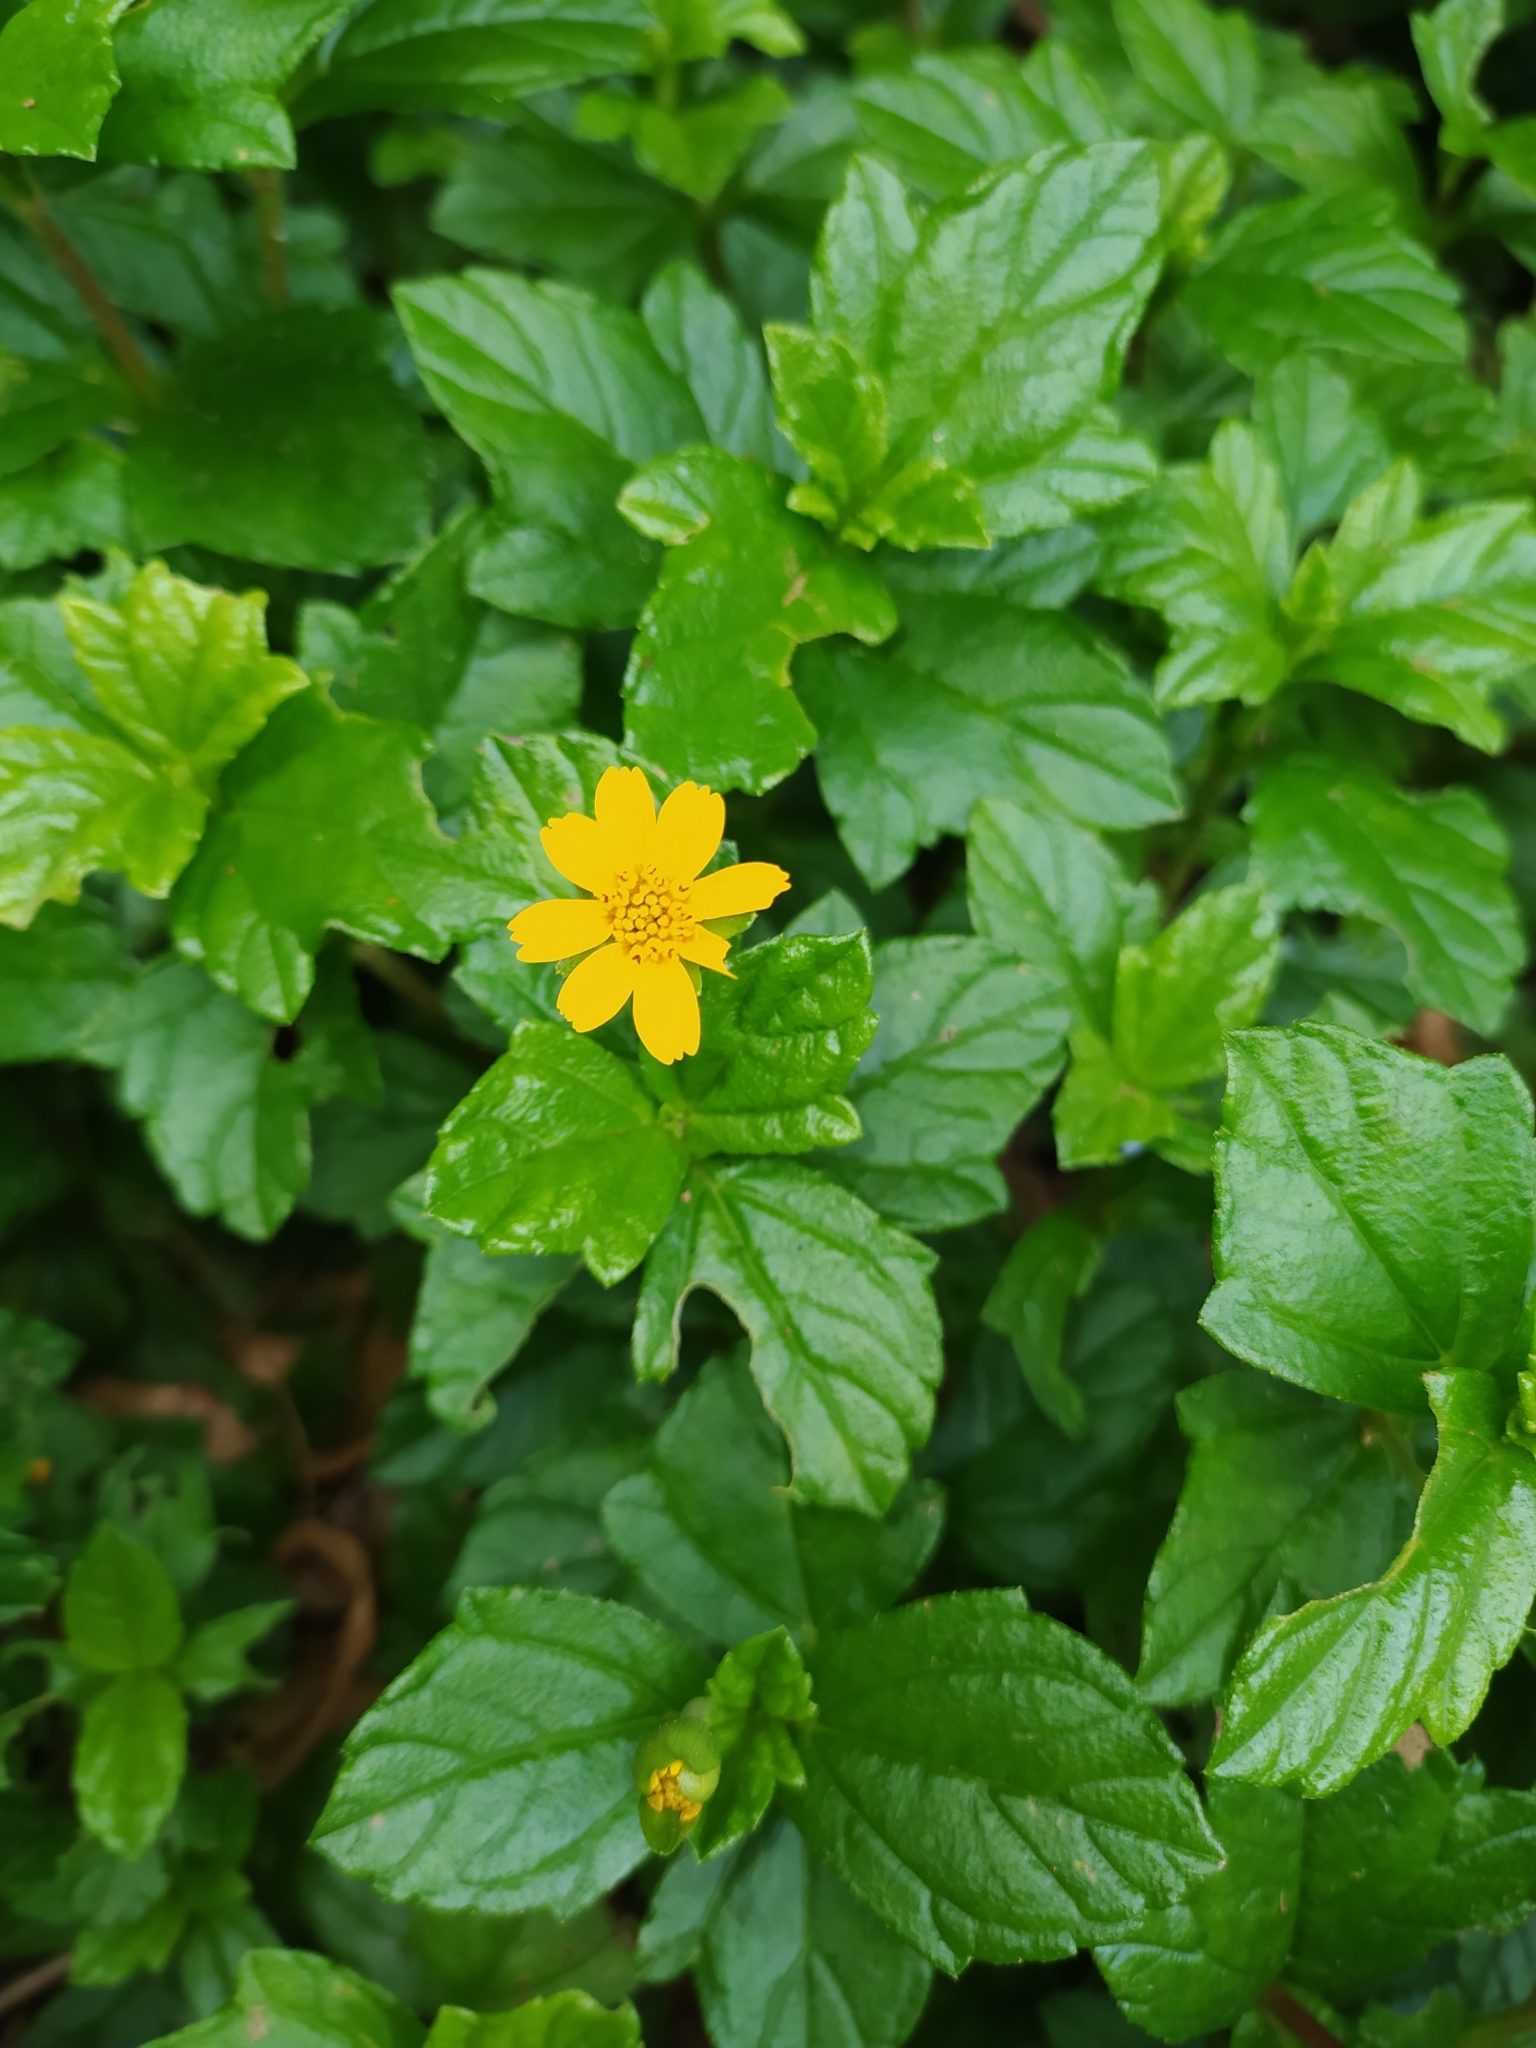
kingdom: Plantae
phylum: Tracheophyta
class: Magnoliopsida
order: Asterales
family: Asteraceae
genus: Sphagneticola
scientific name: Sphagneticola trilobata
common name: Bay biscayne creeping-oxeye
